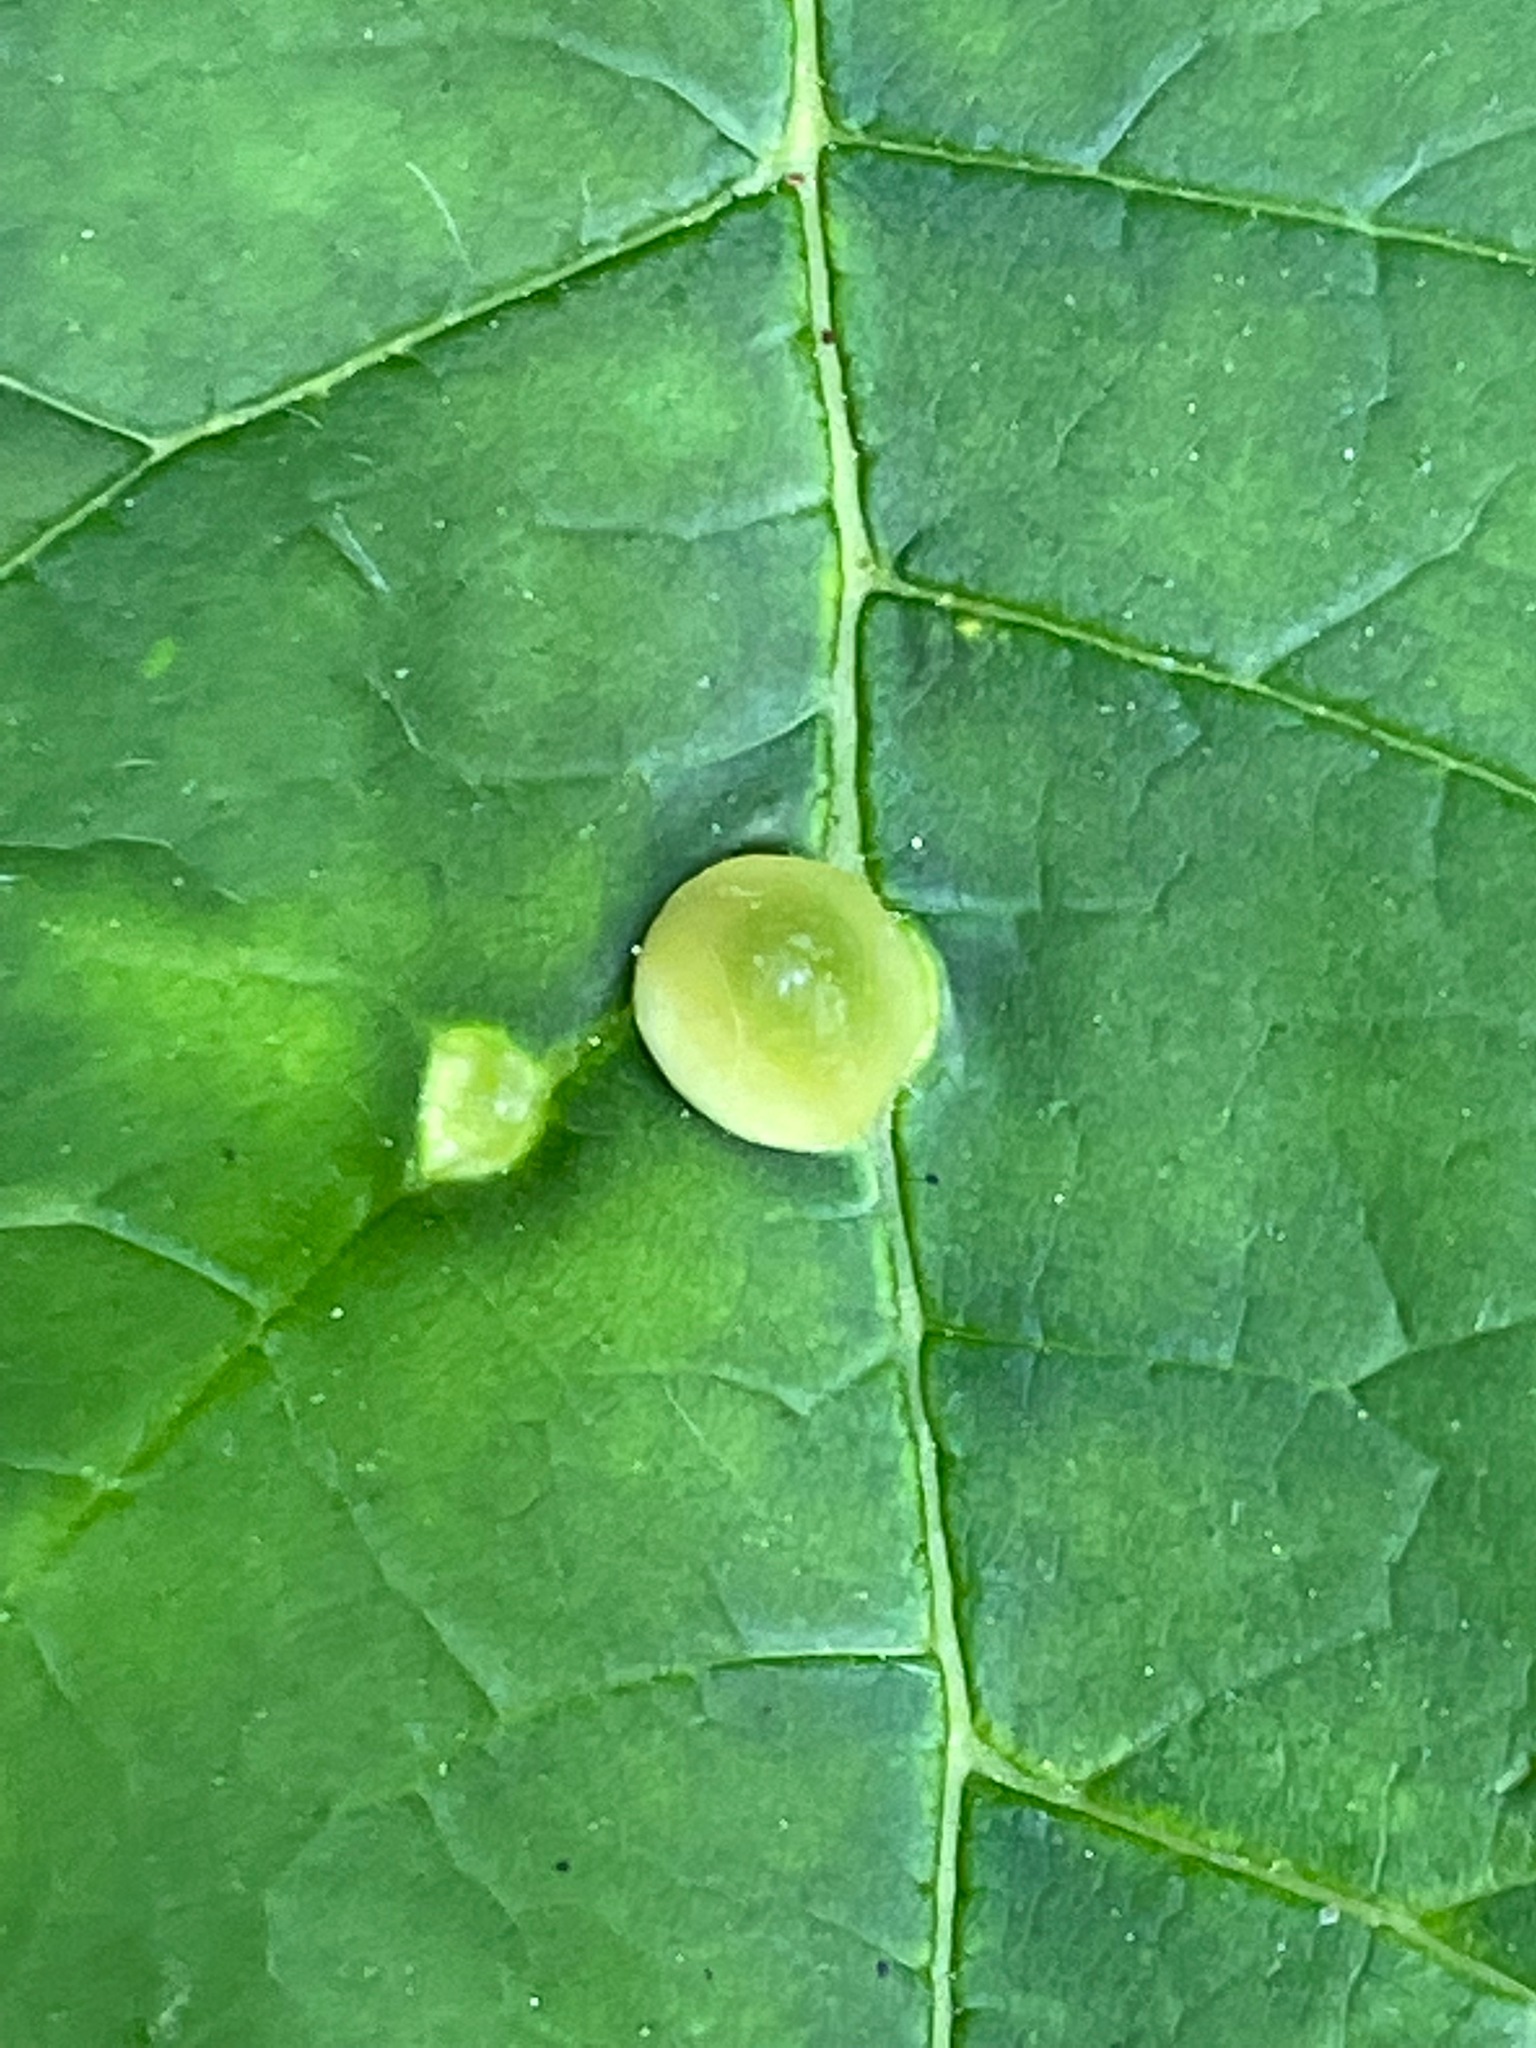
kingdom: Animalia
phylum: Arthropoda
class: Insecta
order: Diptera
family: Cecidomyiidae
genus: Dasineura
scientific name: Dasineura pellex
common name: Ash bullet gall midge
